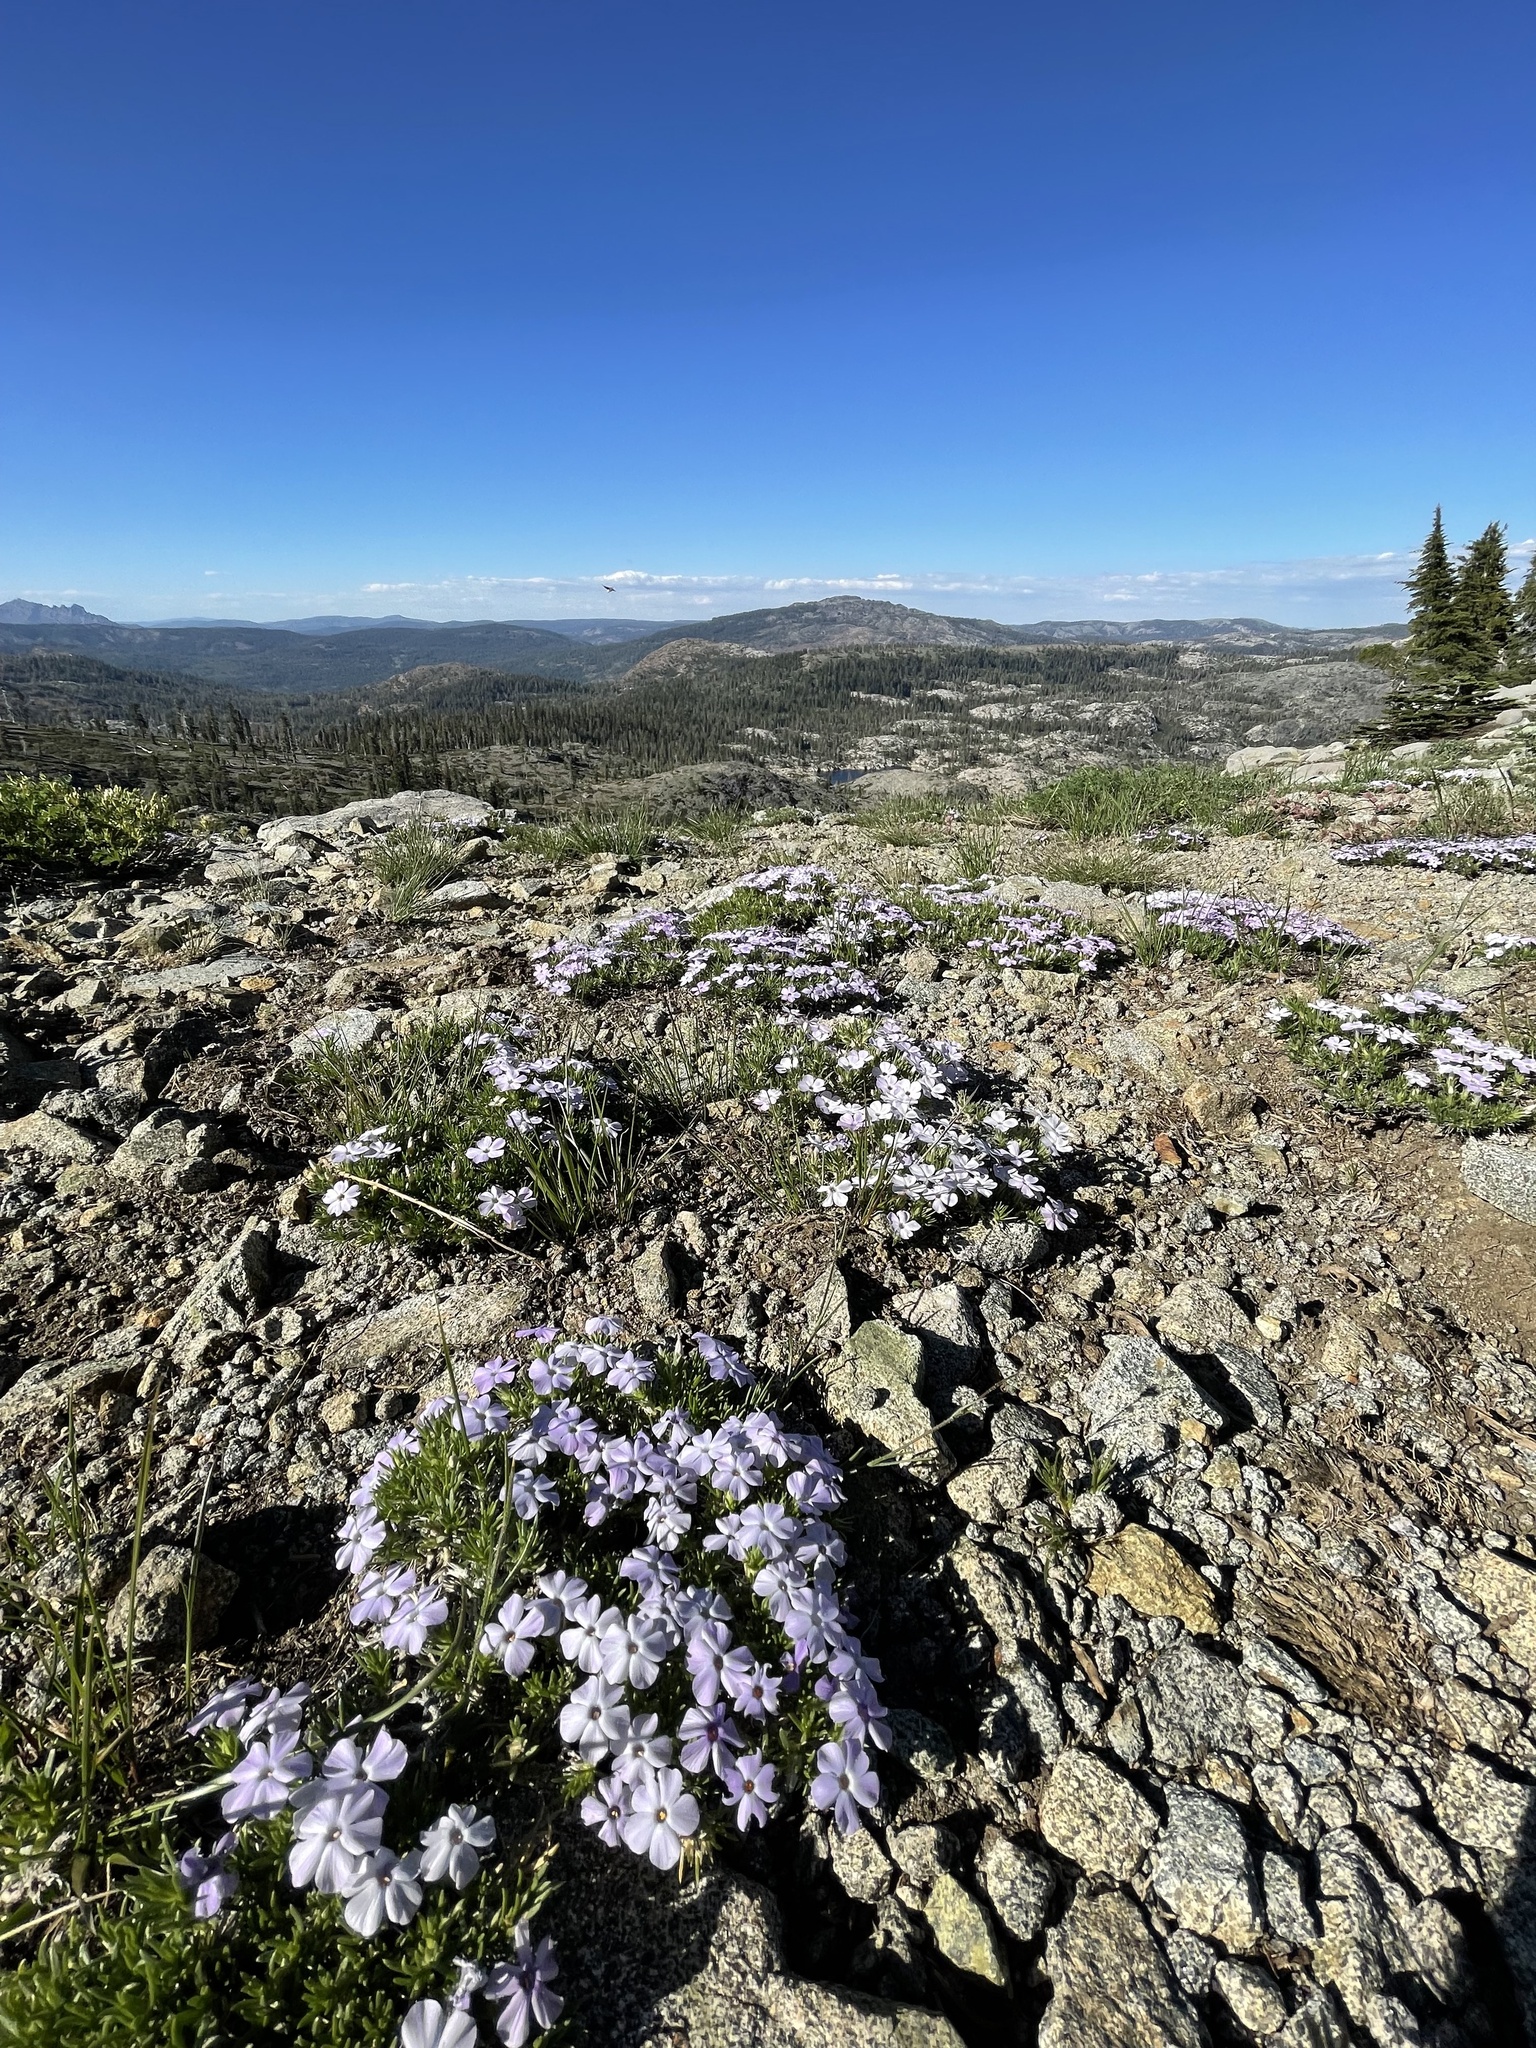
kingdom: Plantae
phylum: Tracheophyta
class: Magnoliopsida
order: Ericales
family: Polemoniaceae
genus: Phlox
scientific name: Phlox diffusa
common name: Mat phlox
